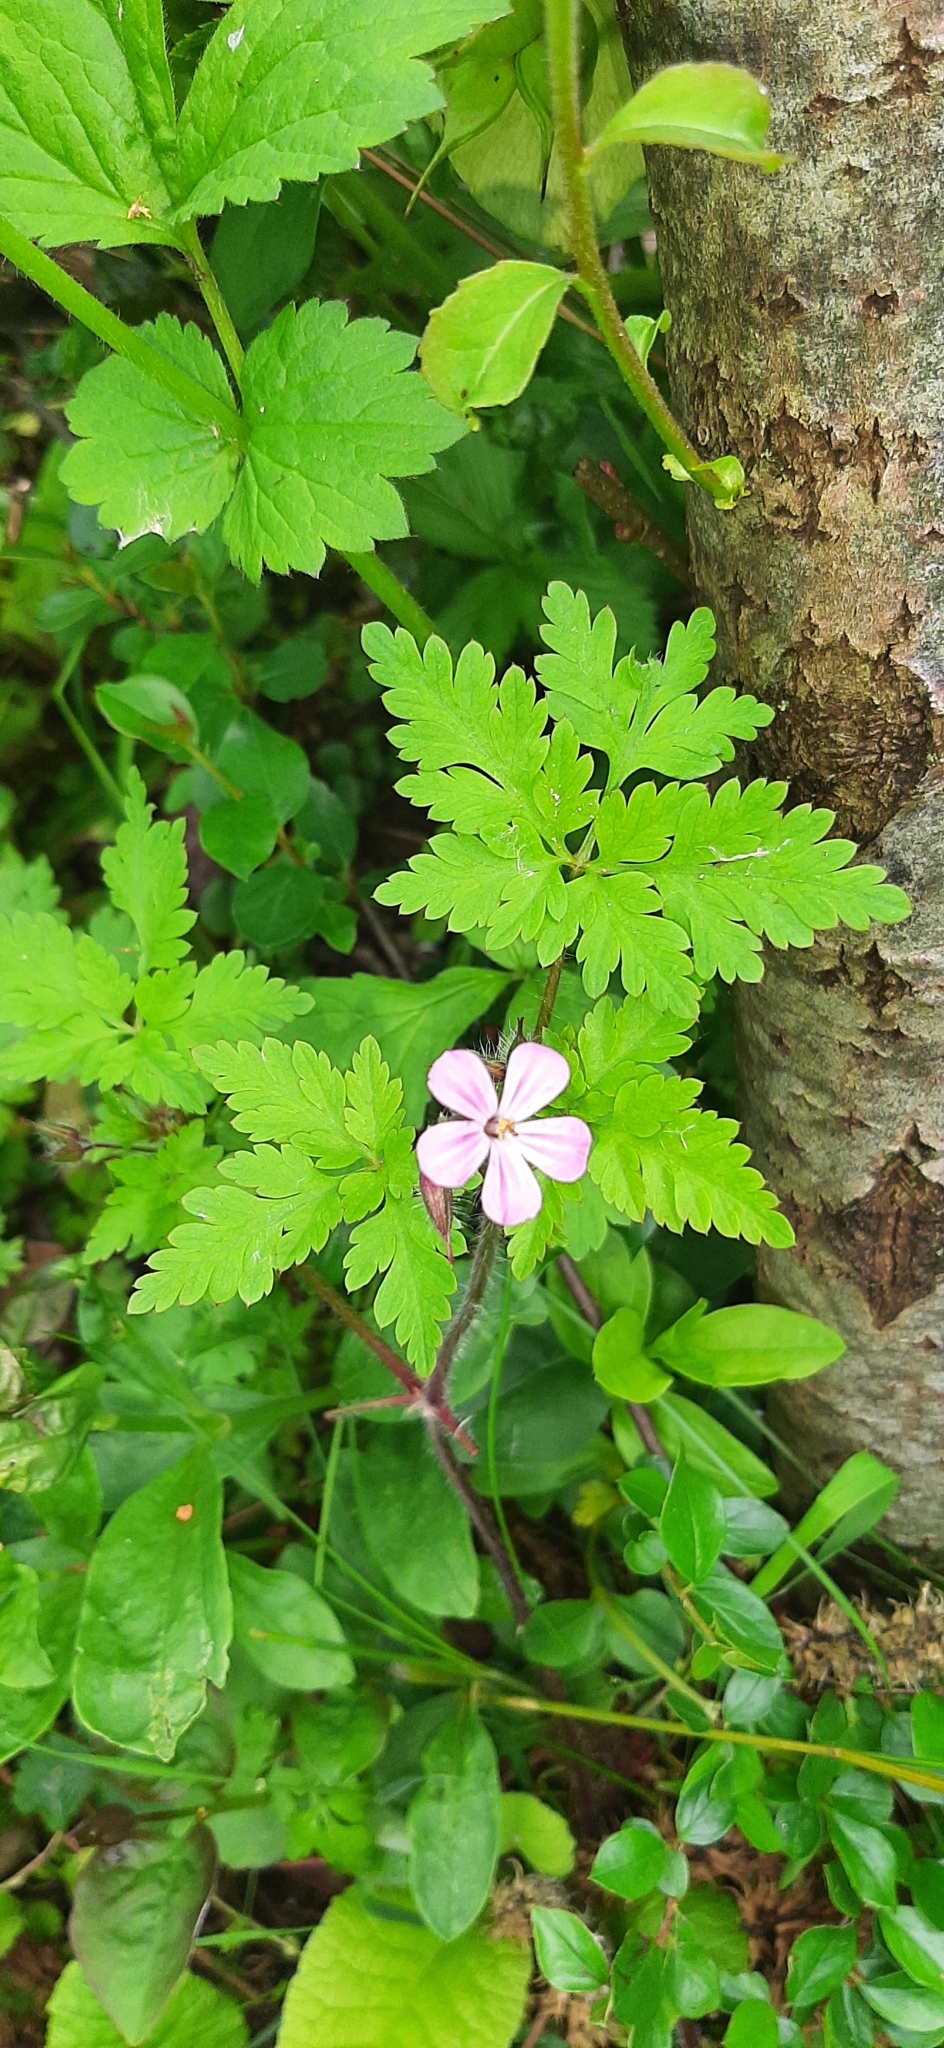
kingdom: Plantae
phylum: Tracheophyta
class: Magnoliopsida
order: Geraniales
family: Geraniaceae
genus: Geranium
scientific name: Geranium robertianum
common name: Herb-robert
